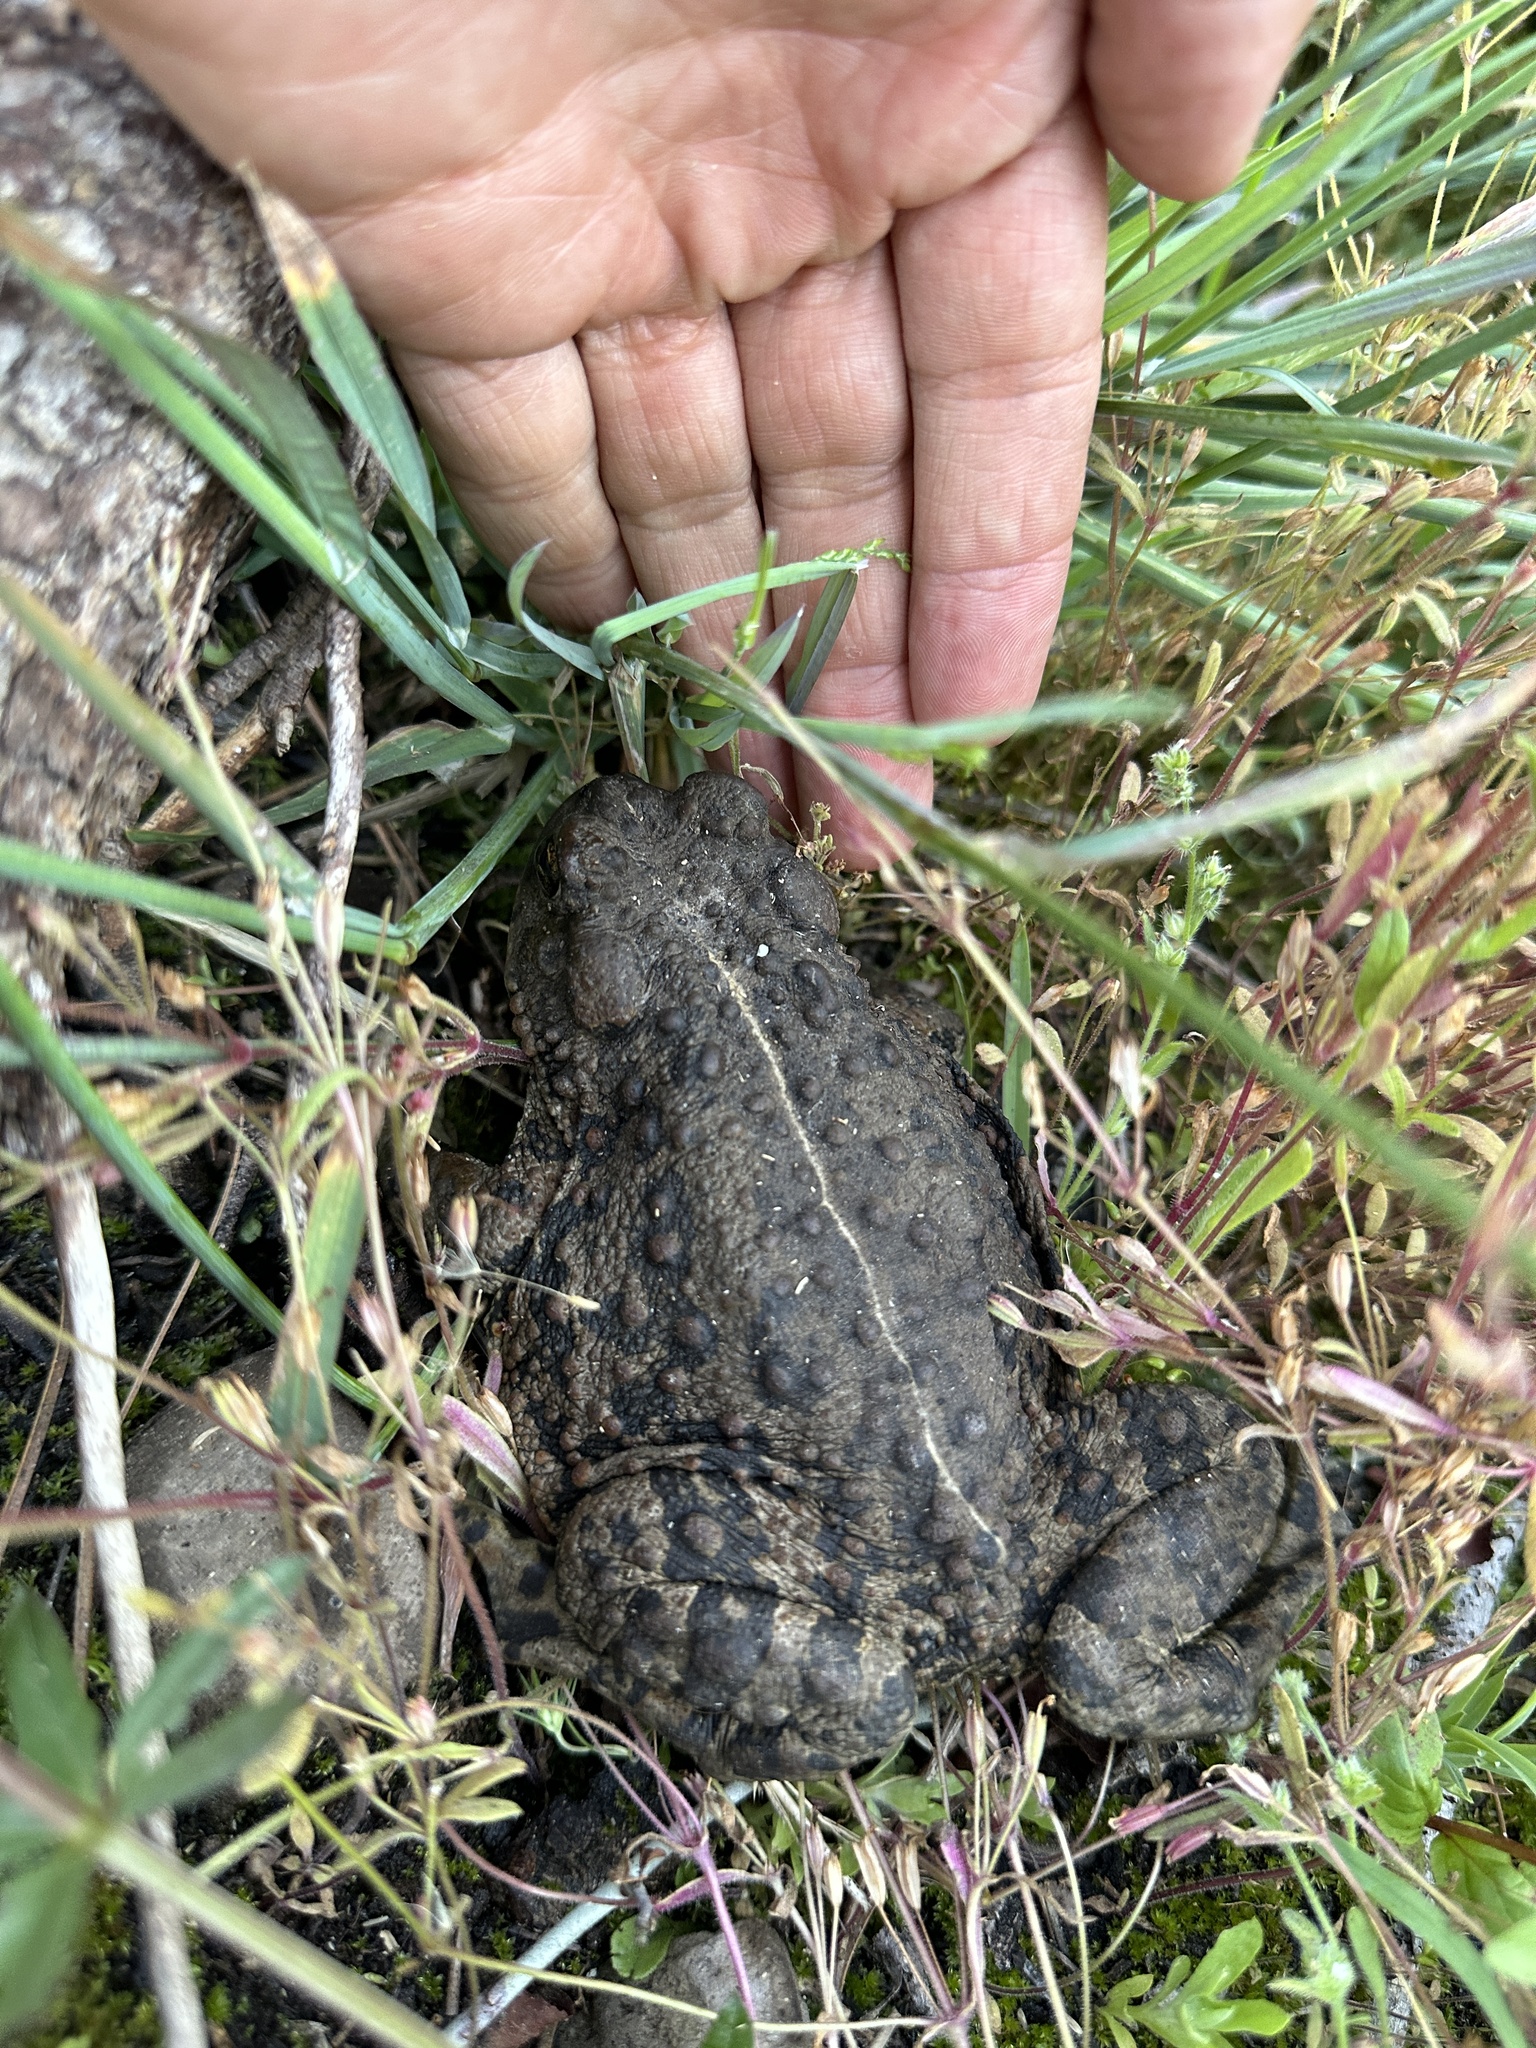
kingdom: Animalia
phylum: Chordata
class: Amphibia
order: Anura
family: Bufonidae
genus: Anaxyrus
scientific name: Anaxyrus boreas
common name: Western toad
